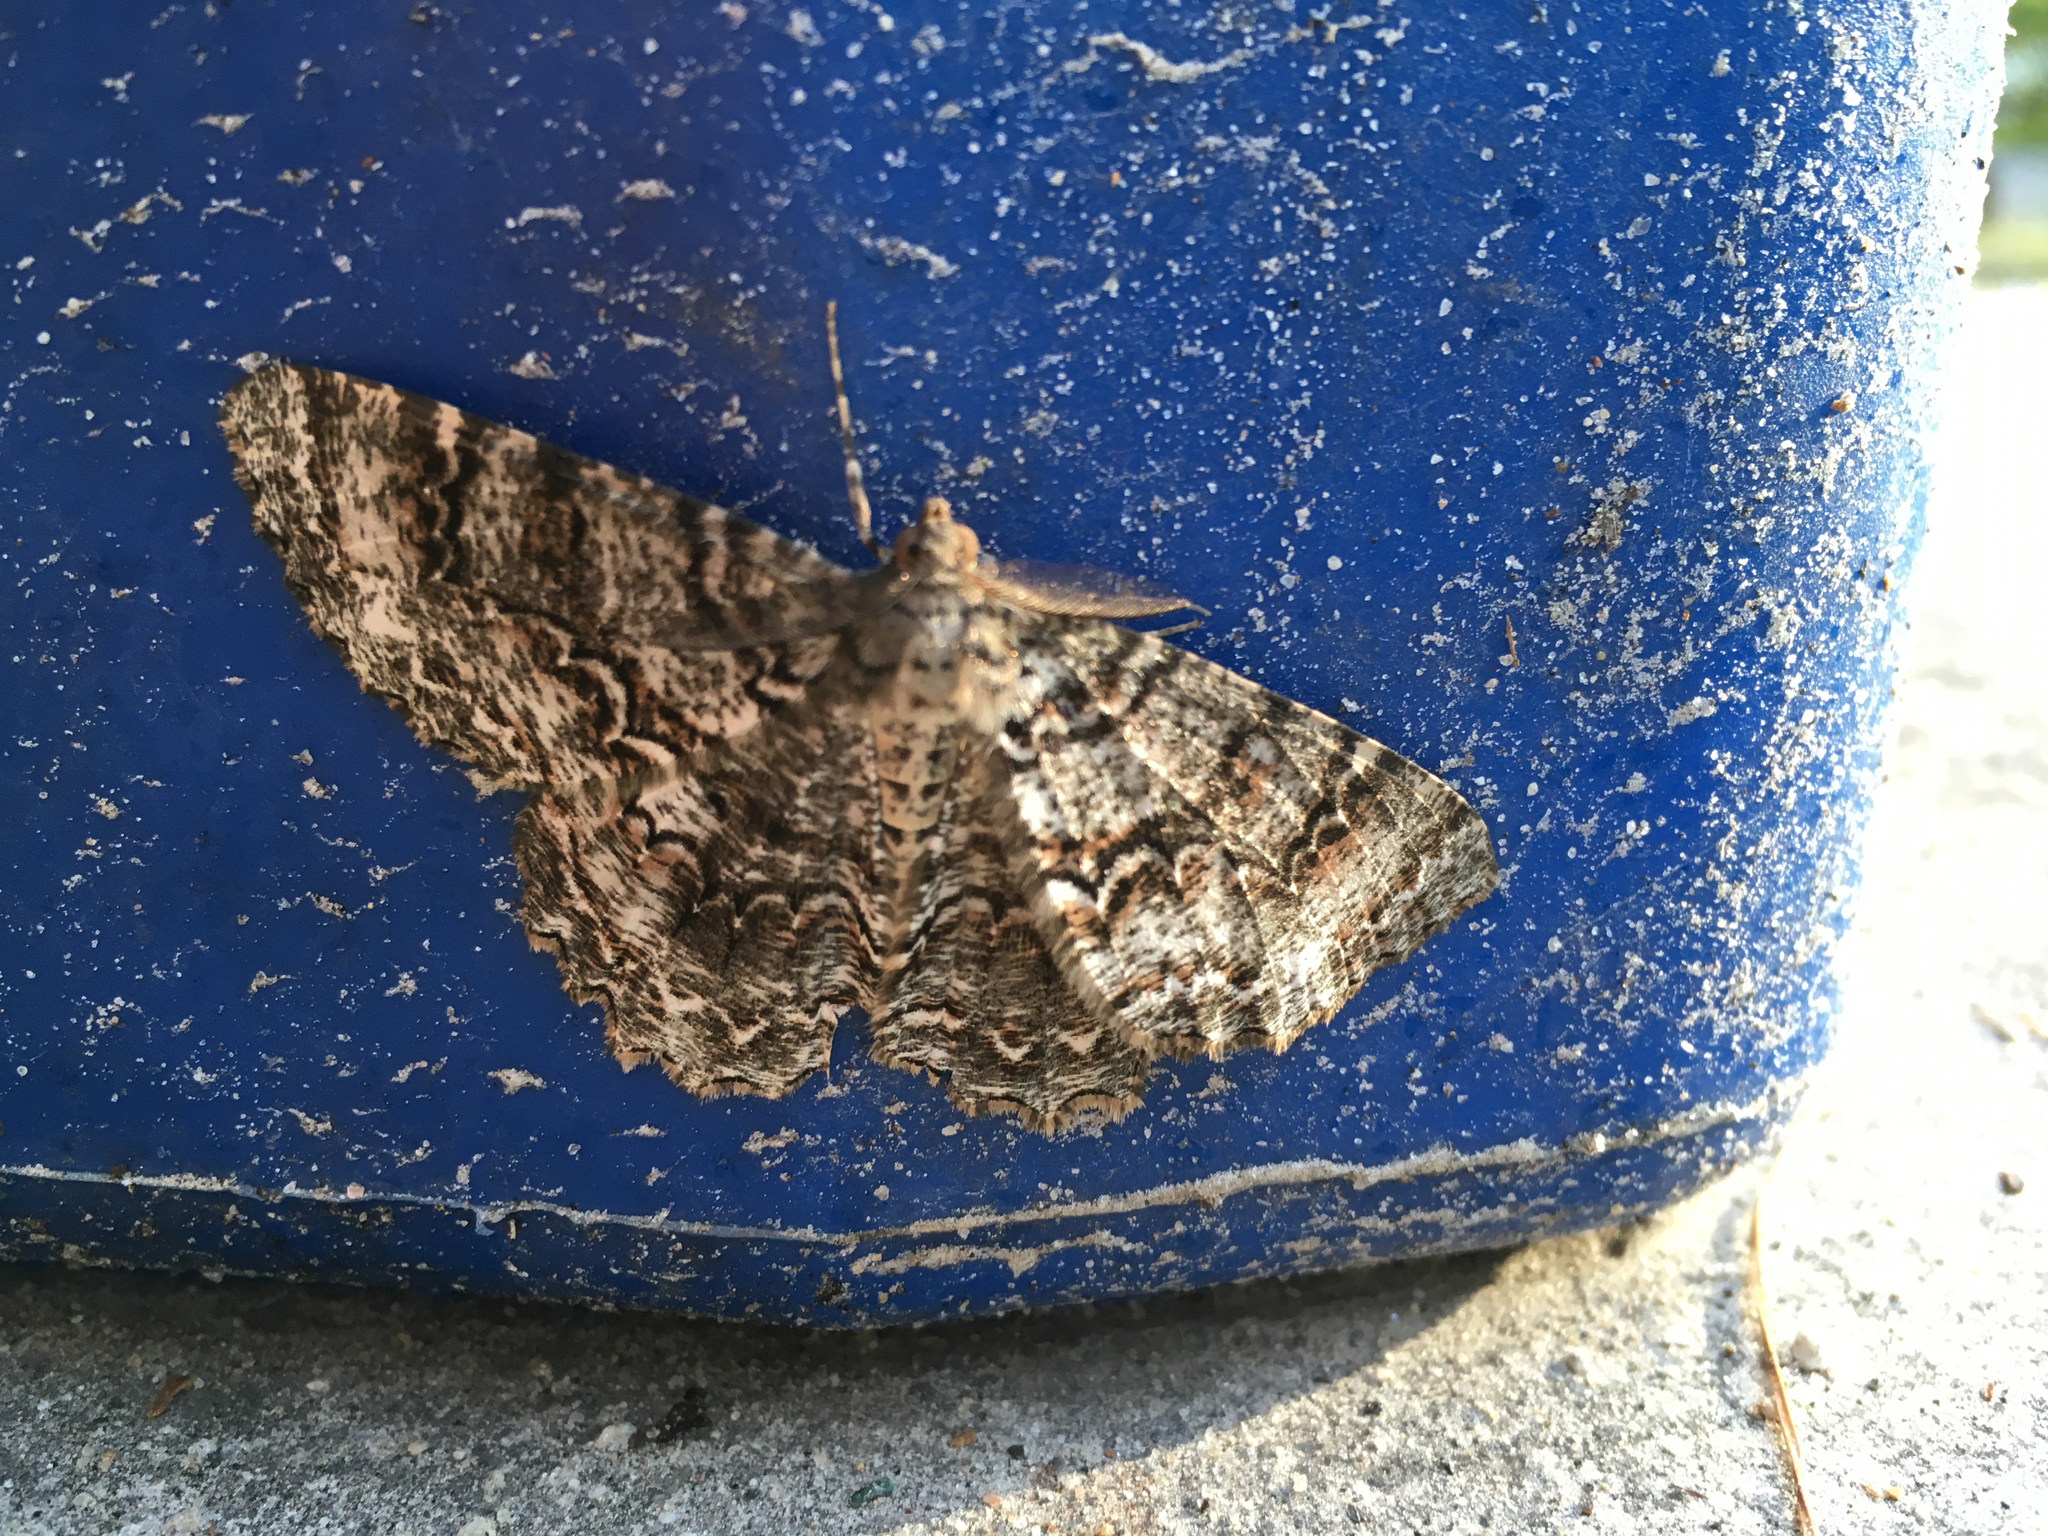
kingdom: Animalia
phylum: Arthropoda
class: Insecta
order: Lepidoptera
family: Geometridae
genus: Epimecis
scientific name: Epimecis hortaria
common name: Tulip-tree beauty
